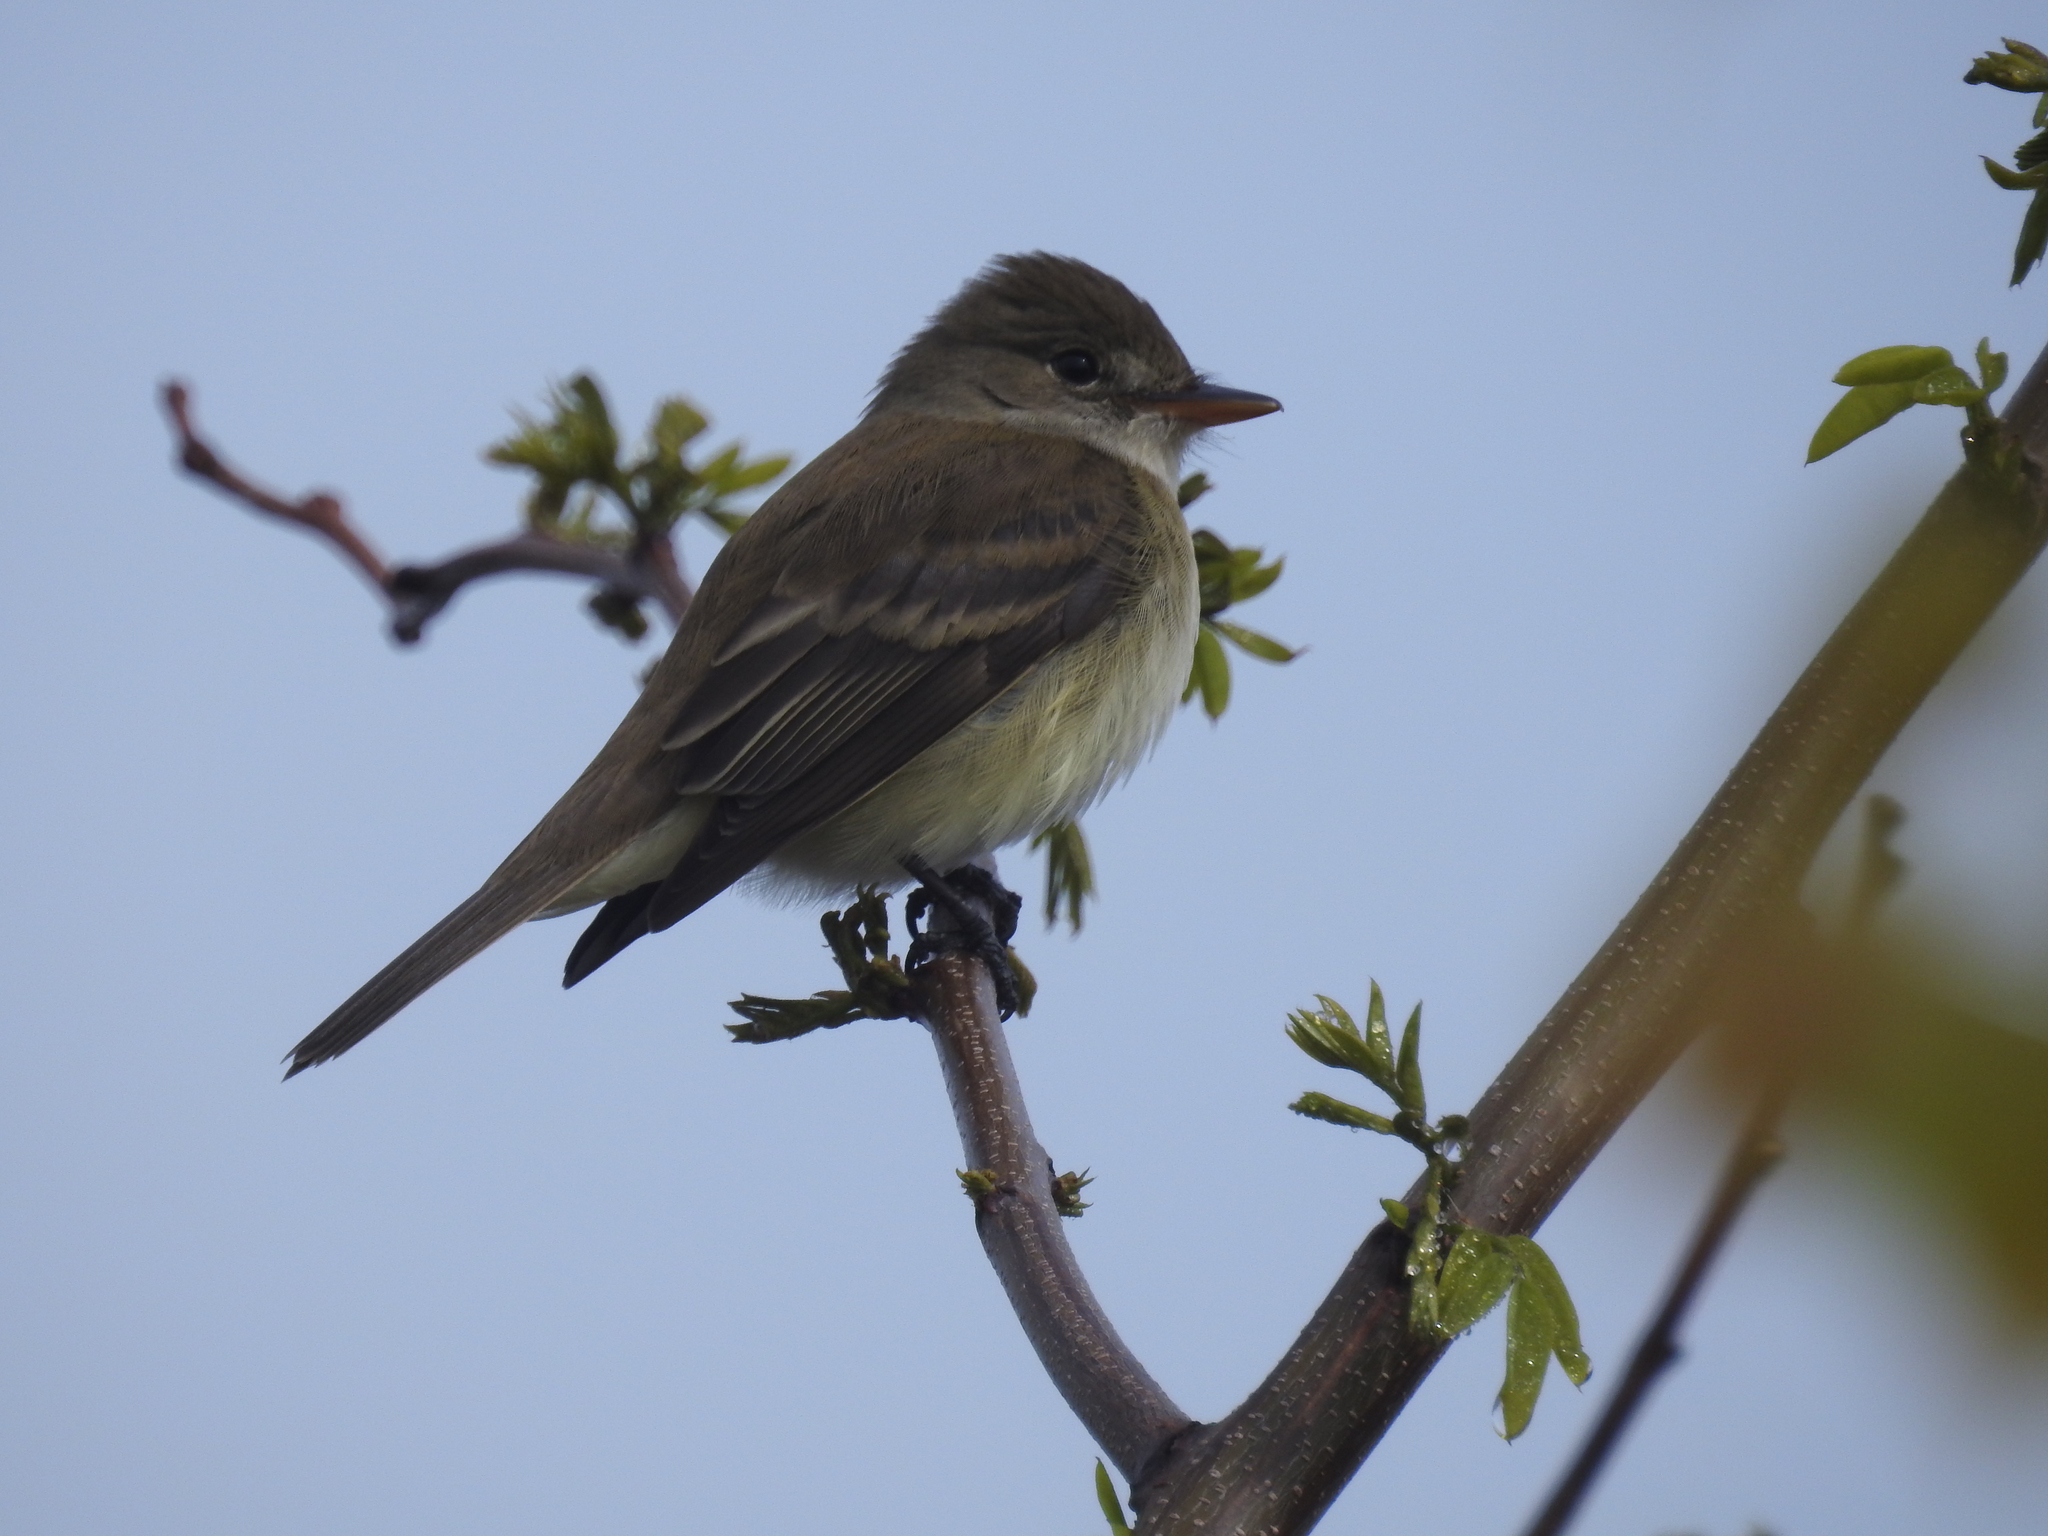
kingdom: Animalia
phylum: Chordata
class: Aves
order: Passeriformes
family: Tyrannidae
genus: Empidonax
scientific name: Empidonax traillii
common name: Willow flycatcher
